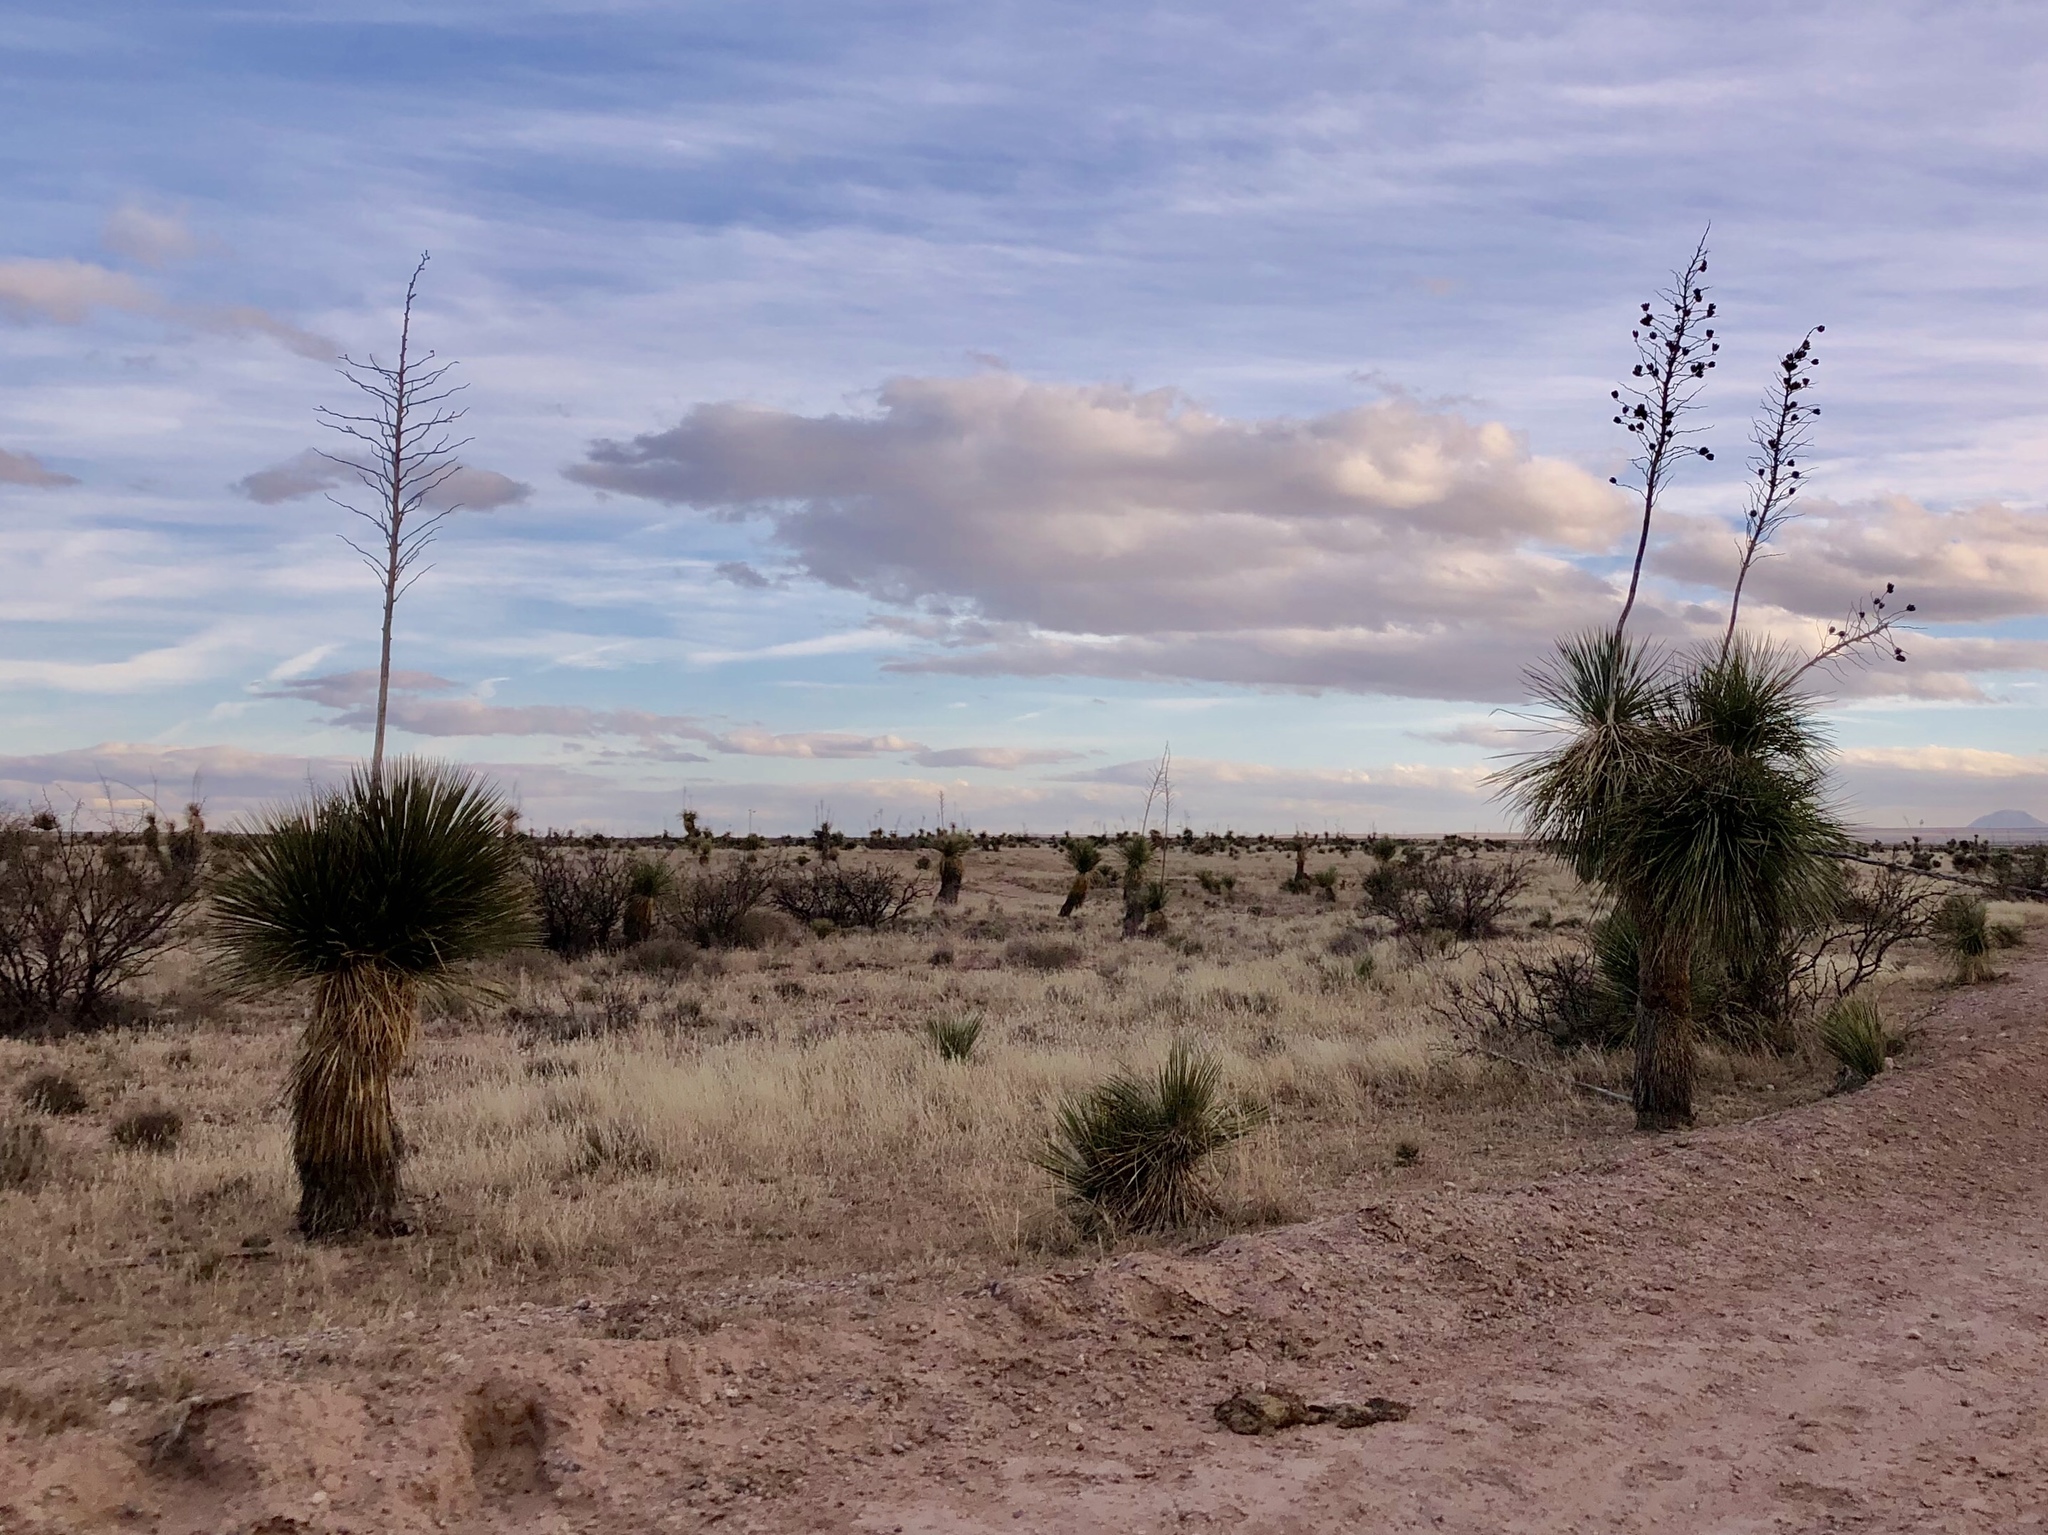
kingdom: Plantae
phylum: Tracheophyta
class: Liliopsida
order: Asparagales
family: Asparagaceae
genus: Yucca
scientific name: Yucca elata
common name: Palmella
